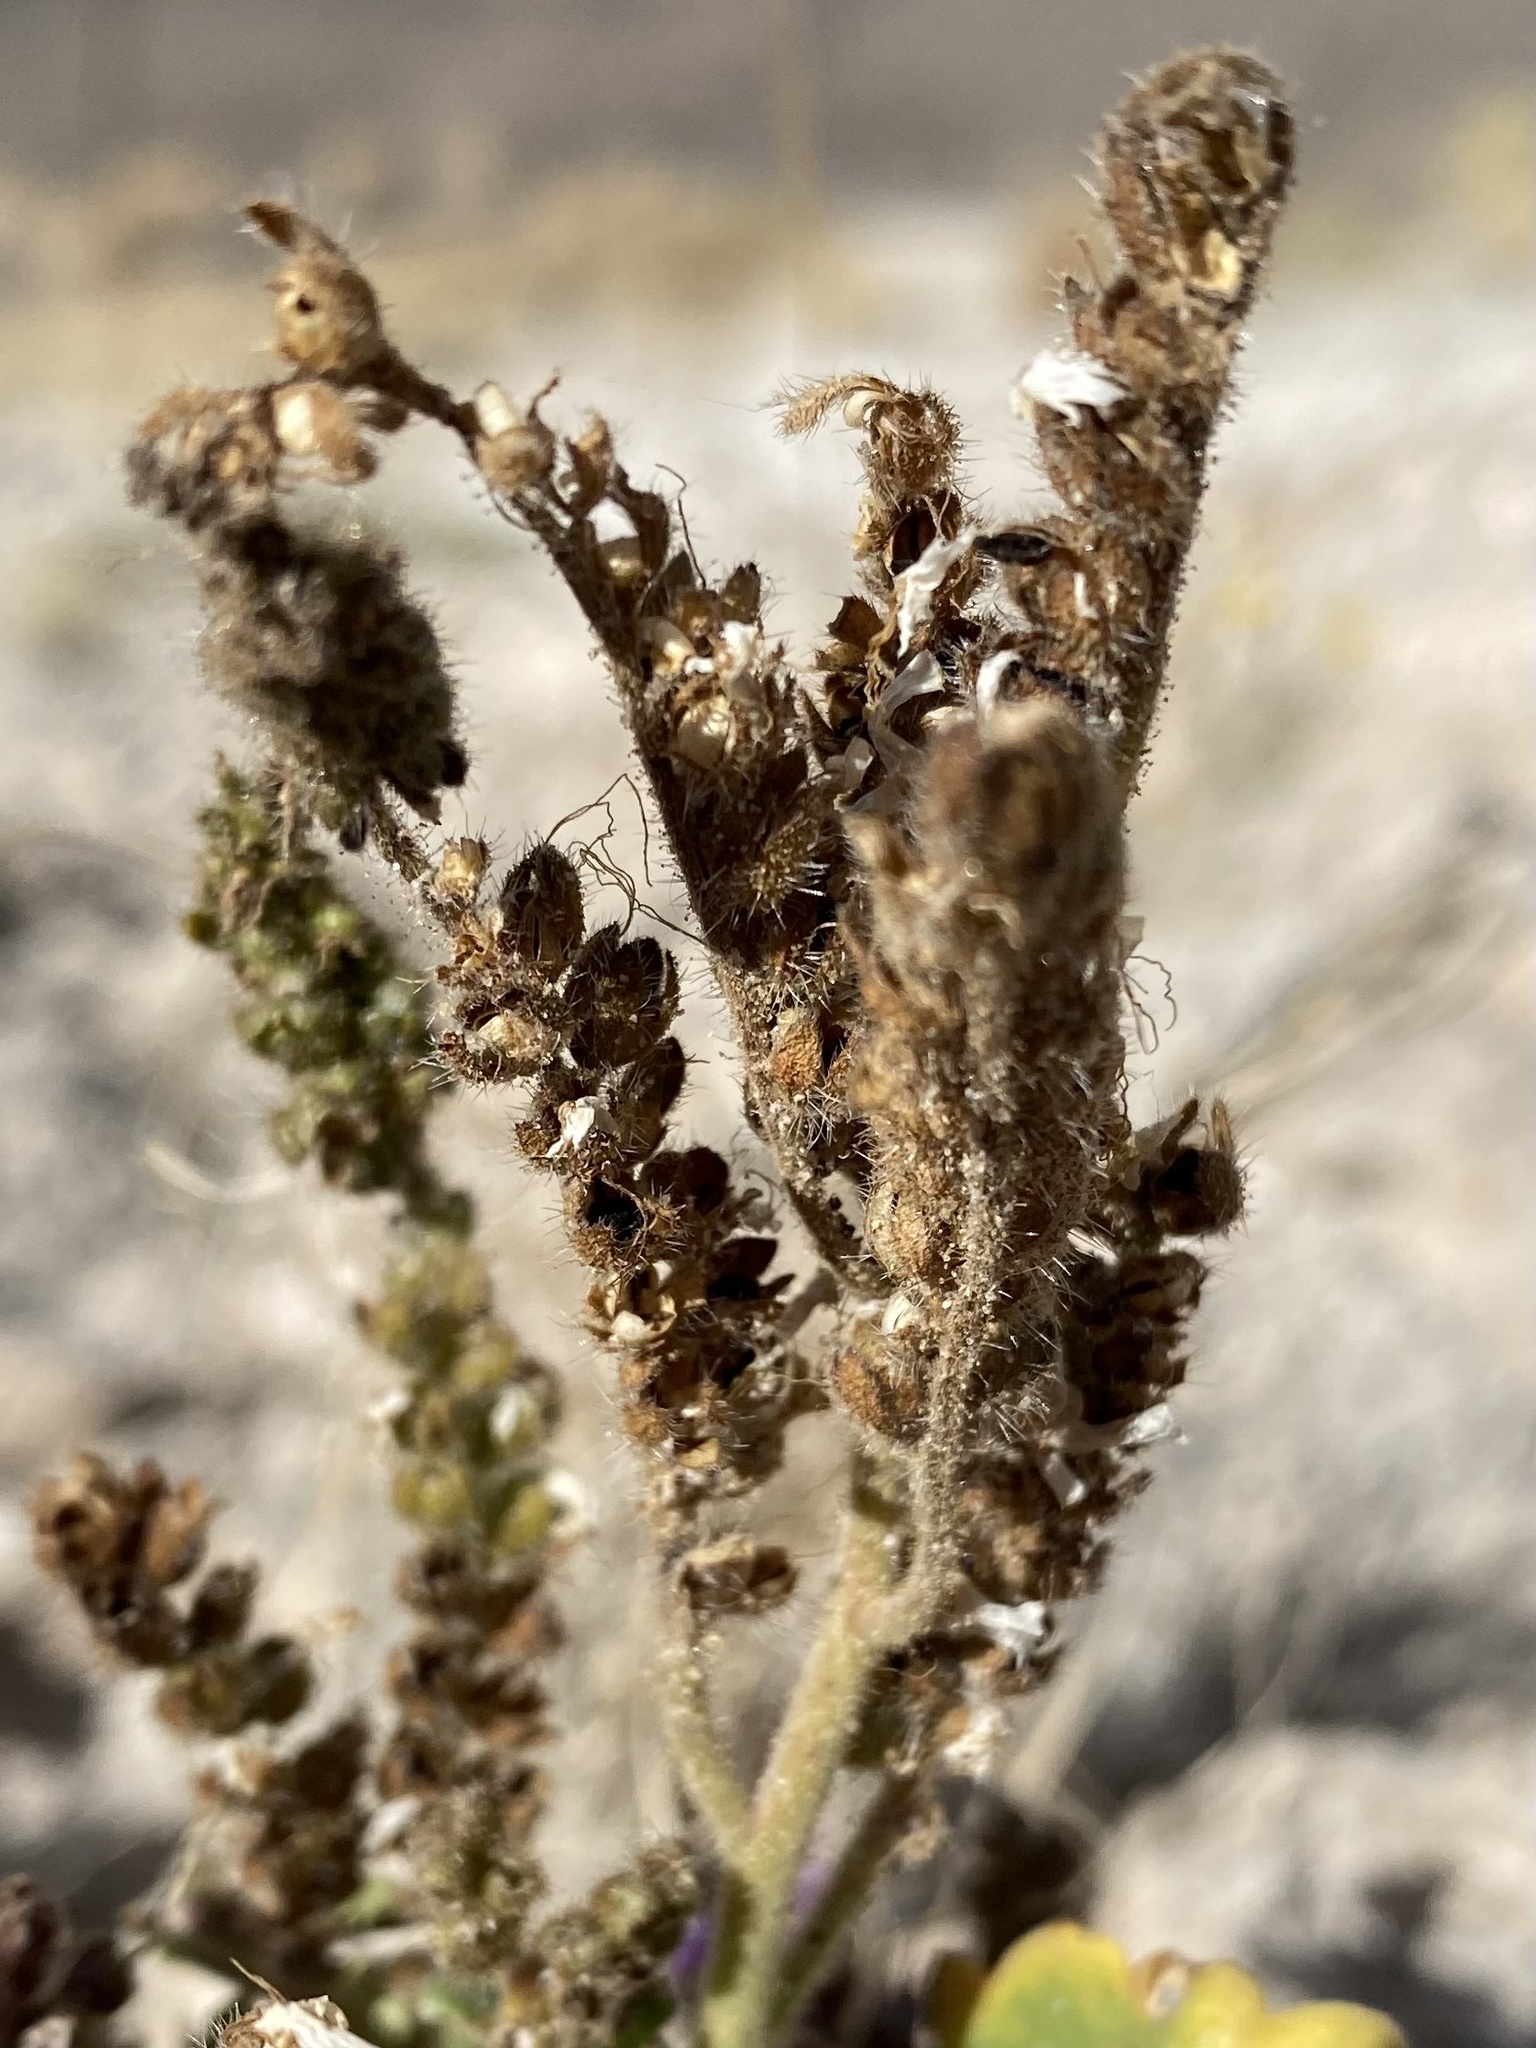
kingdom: Plantae
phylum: Tracheophyta
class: Magnoliopsida
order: Boraginales
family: Hydrophyllaceae
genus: Phacelia
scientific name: Phacelia sivinskii
